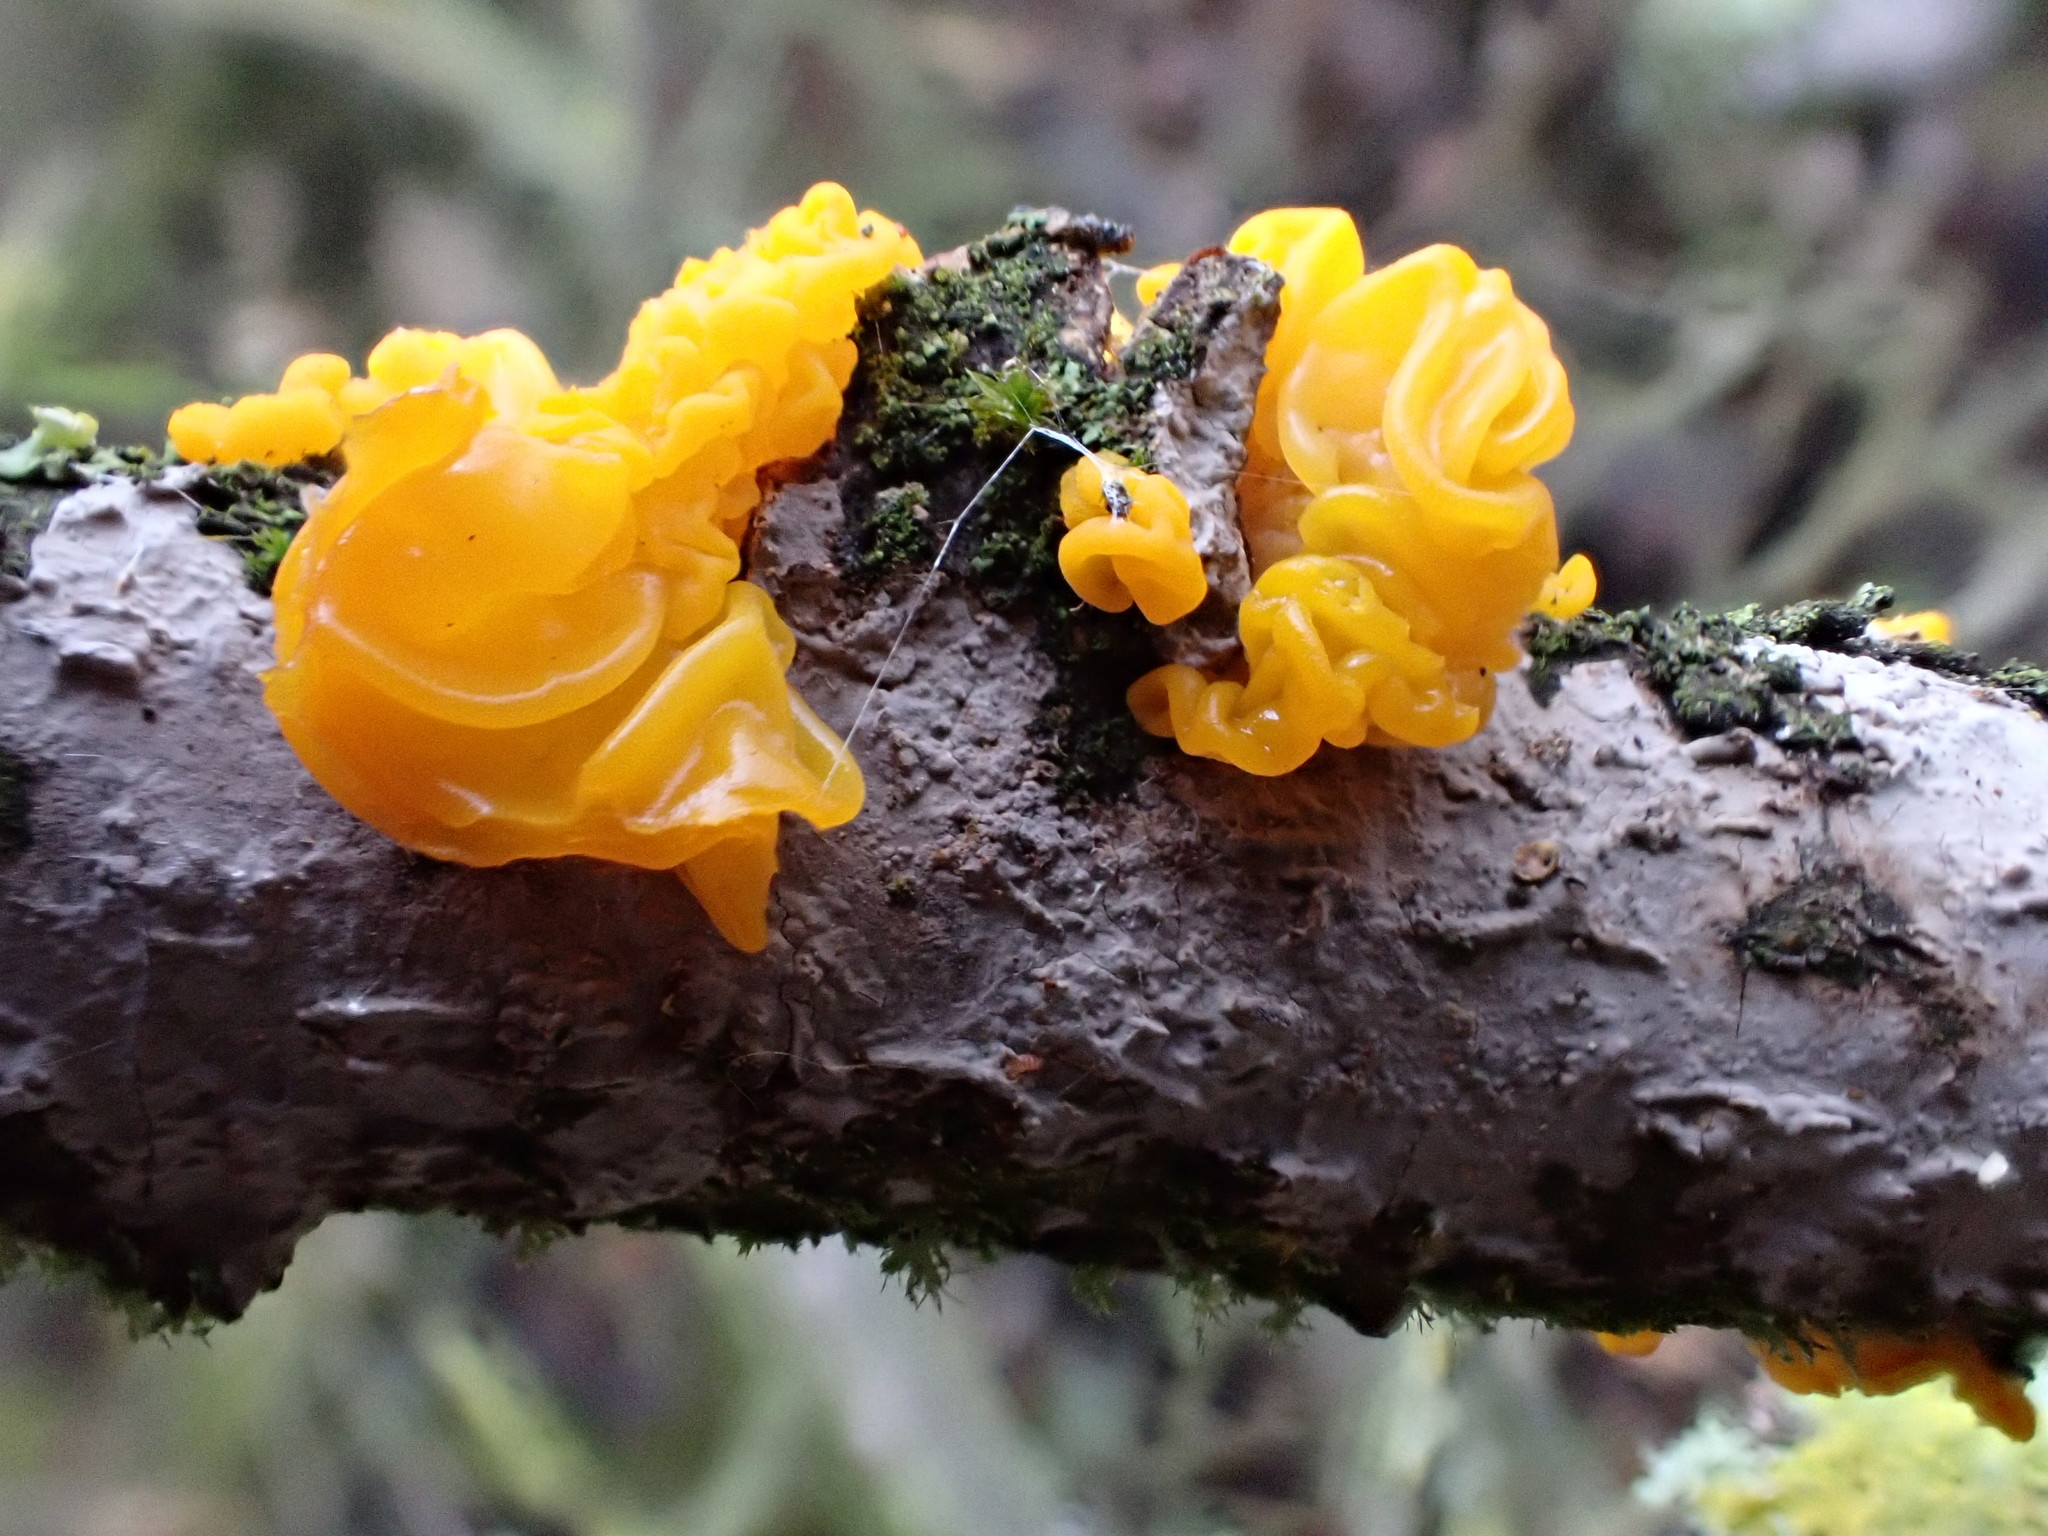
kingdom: Fungi
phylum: Basidiomycota
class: Tremellomycetes
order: Tremellales
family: Tremellaceae
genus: Tremella
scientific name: Tremella mesenterica
